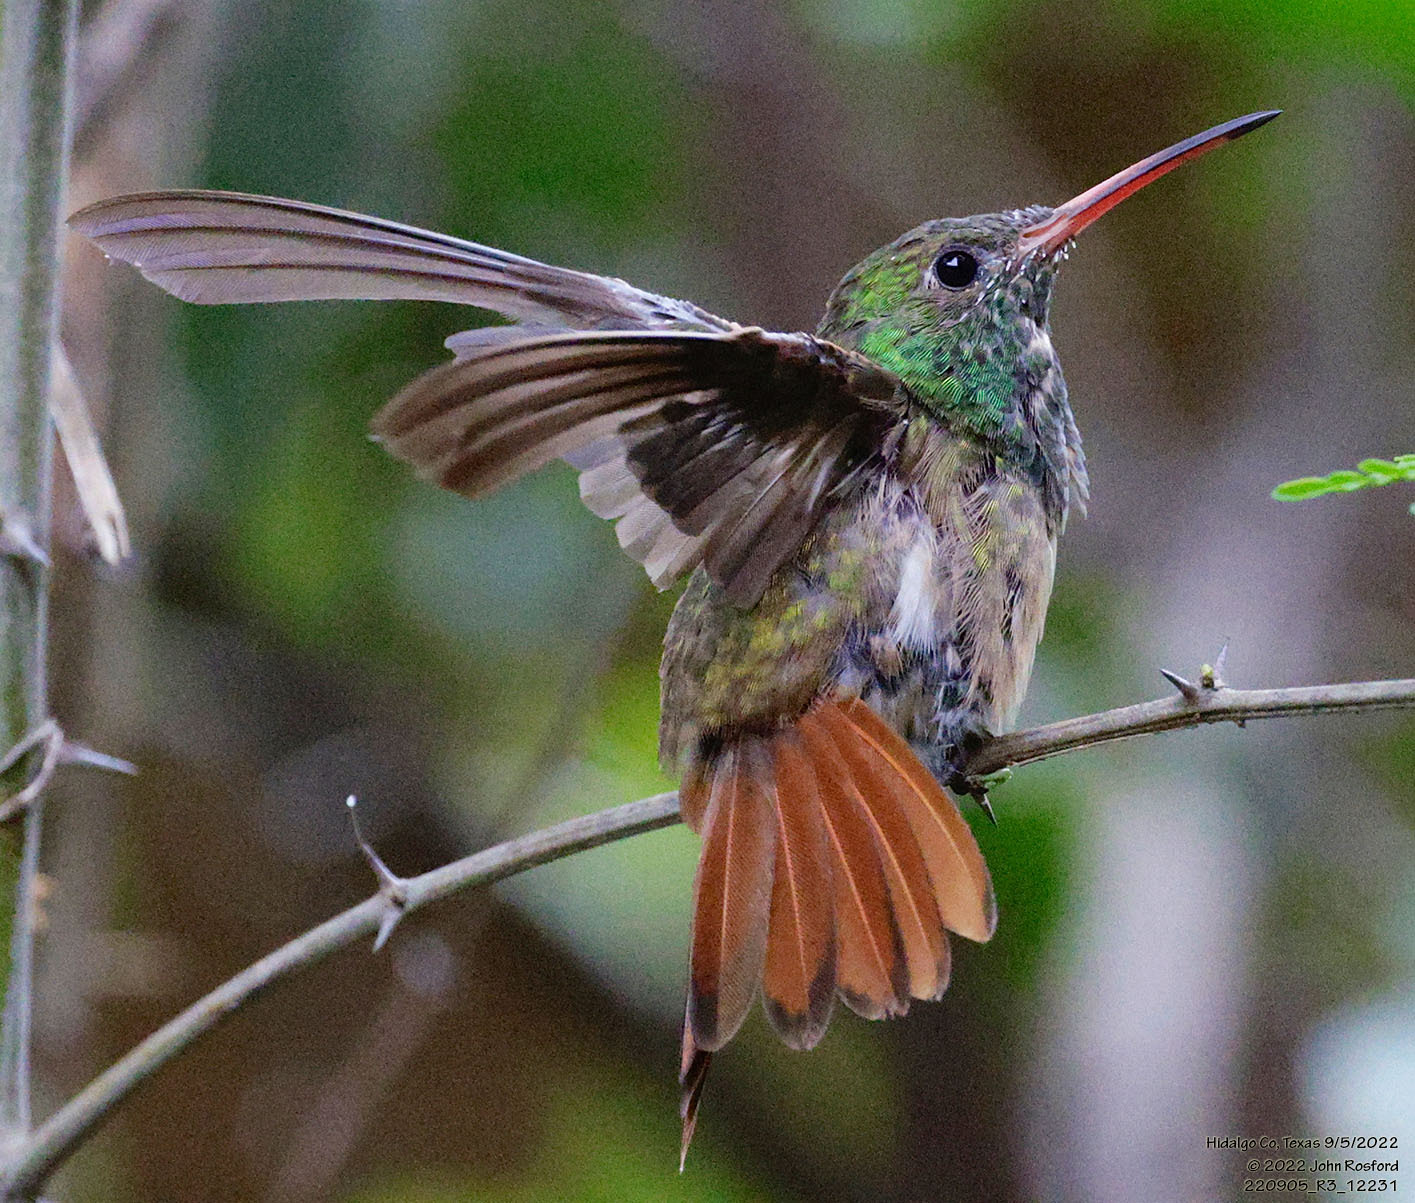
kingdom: Animalia
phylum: Chordata
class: Aves
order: Apodiformes
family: Trochilidae
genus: Amazilia
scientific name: Amazilia yucatanensis
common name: Buff-bellied hummingbird
